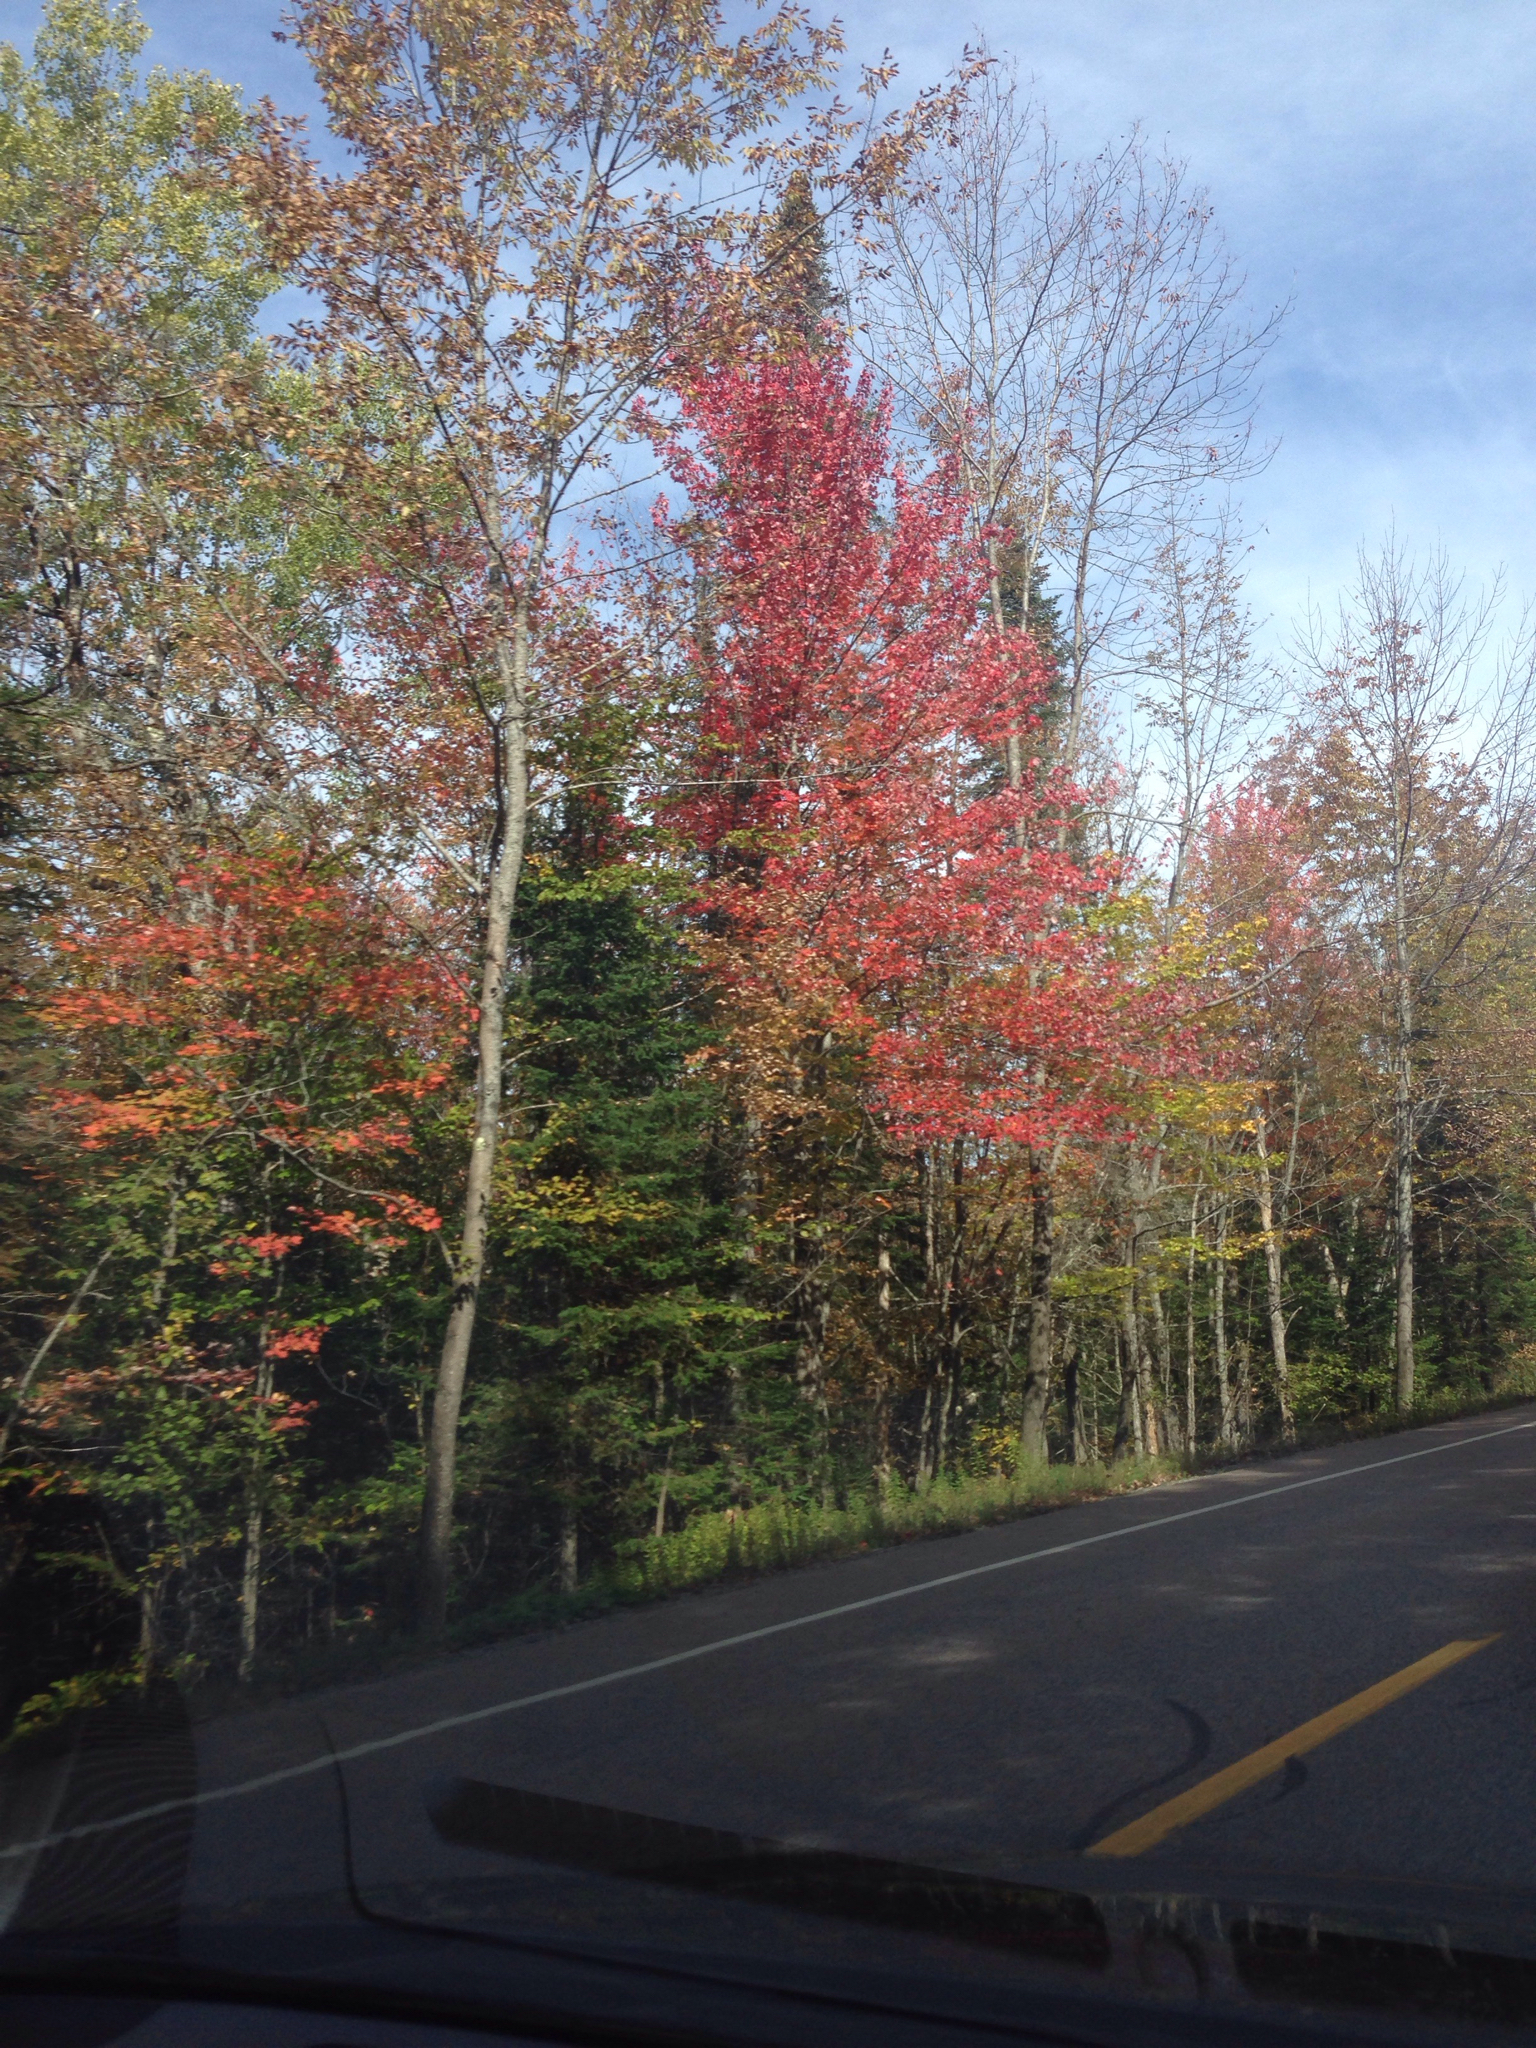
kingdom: Plantae
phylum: Tracheophyta
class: Magnoliopsida
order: Lamiales
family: Oleaceae
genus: Fraxinus
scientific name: Fraxinus americana
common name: White ash
